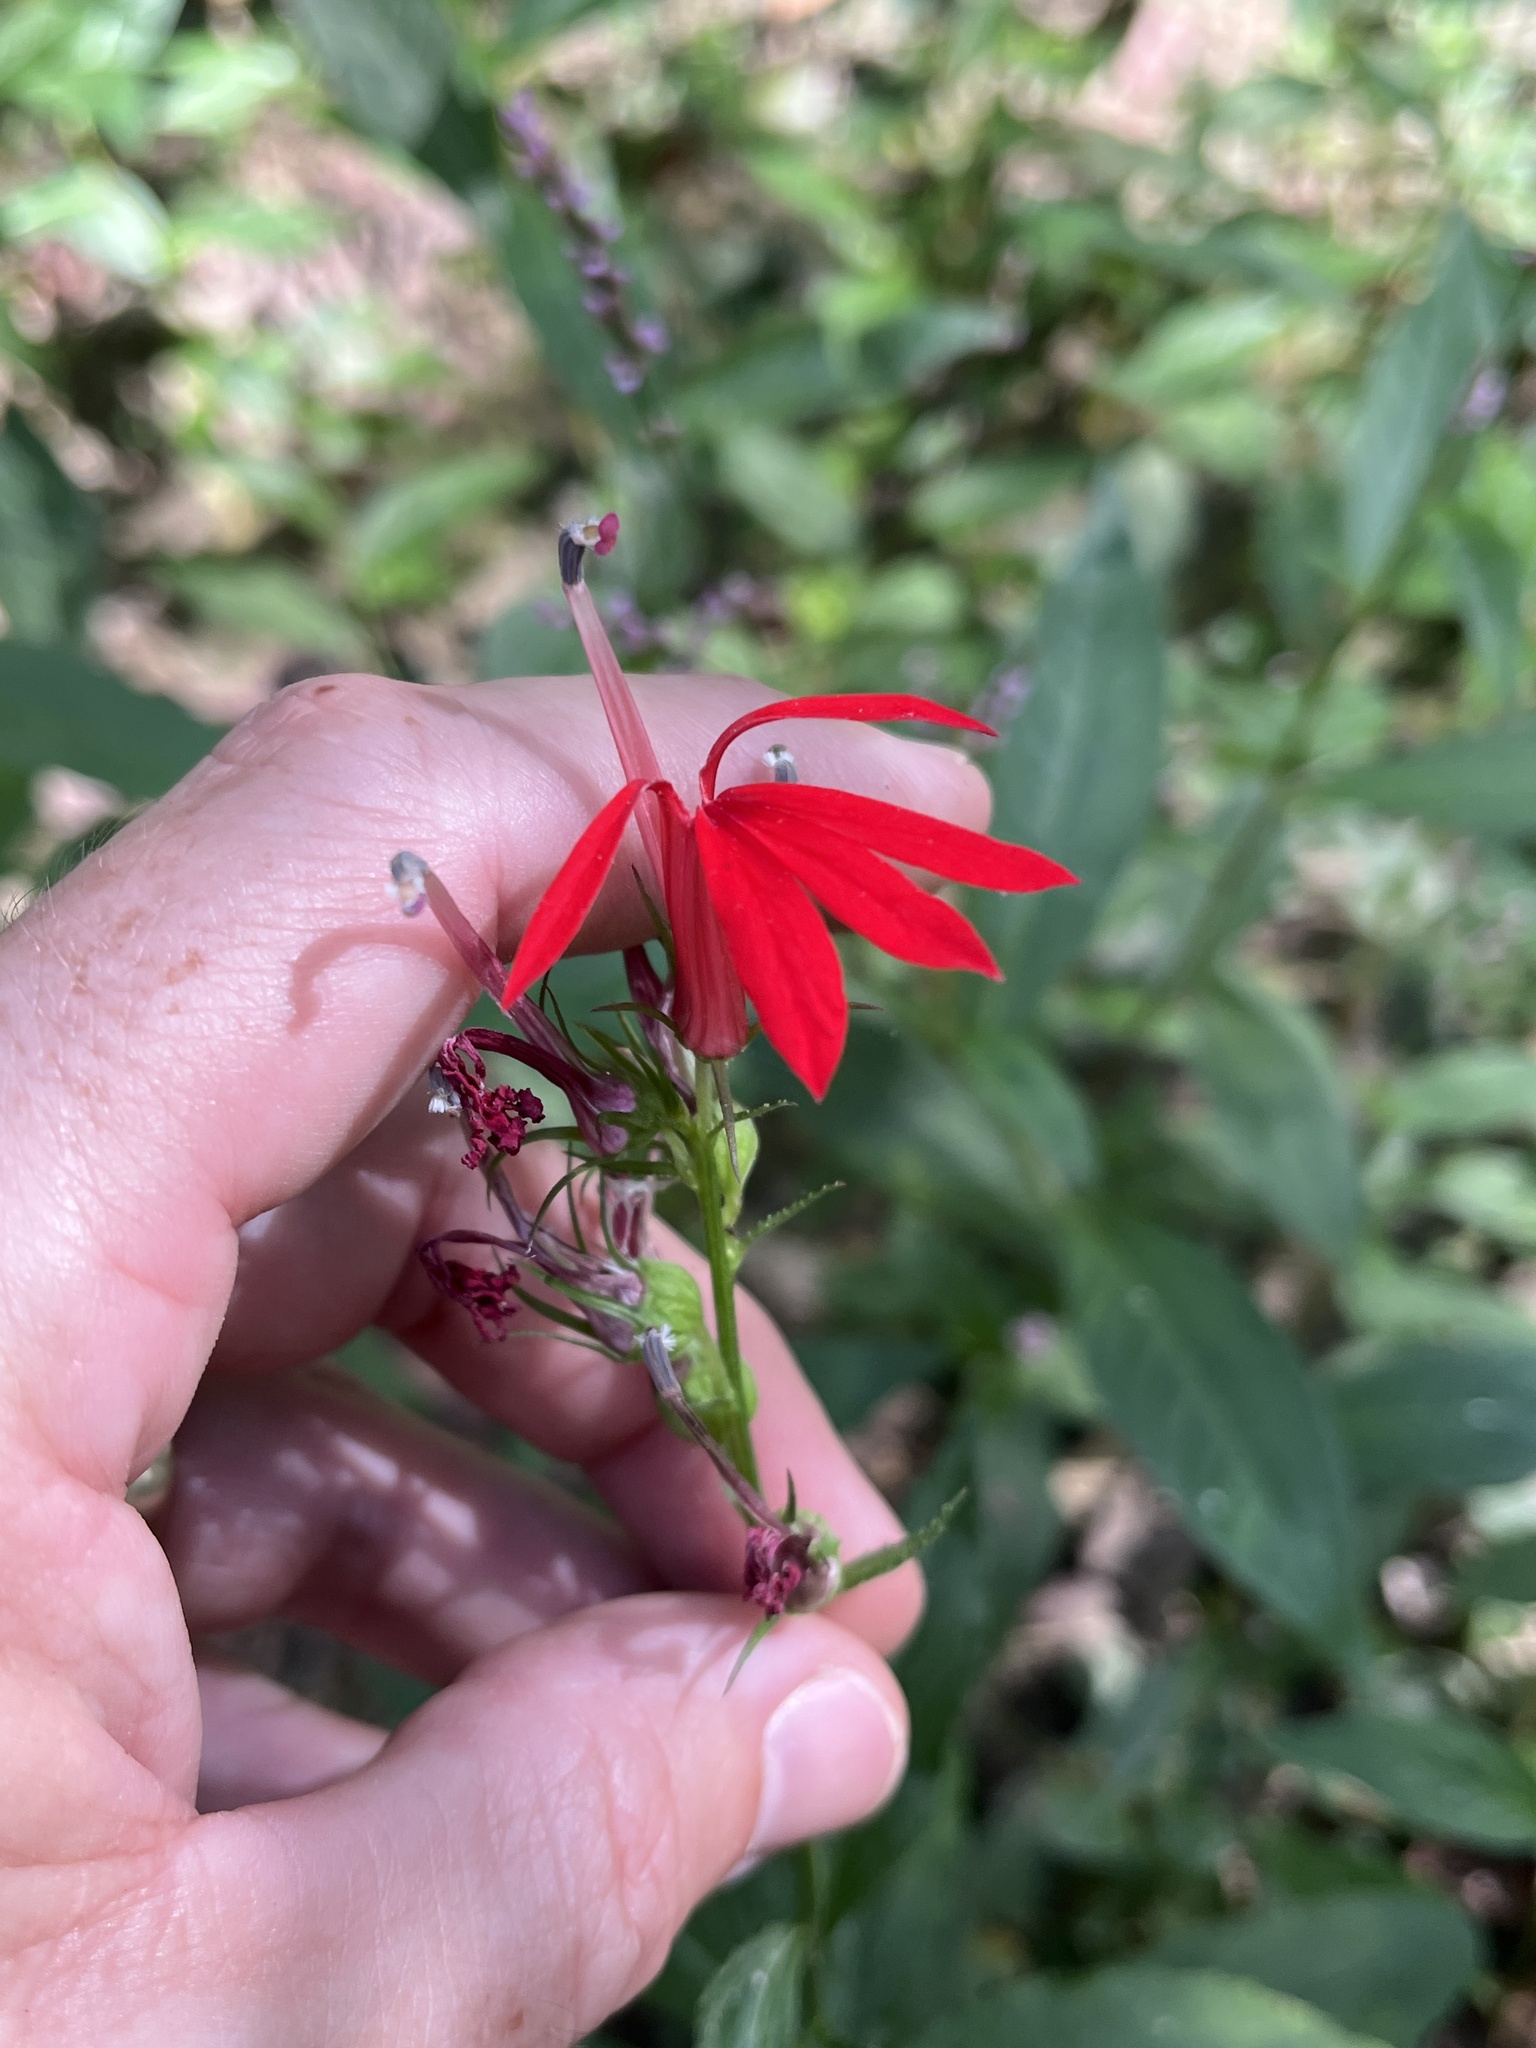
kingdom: Plantae
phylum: Tracheophyta
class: Magnoliopsida
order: Asterales
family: Campanulaceae
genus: Lobelia
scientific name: Lobelia cardinalis
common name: Cardinal flower
